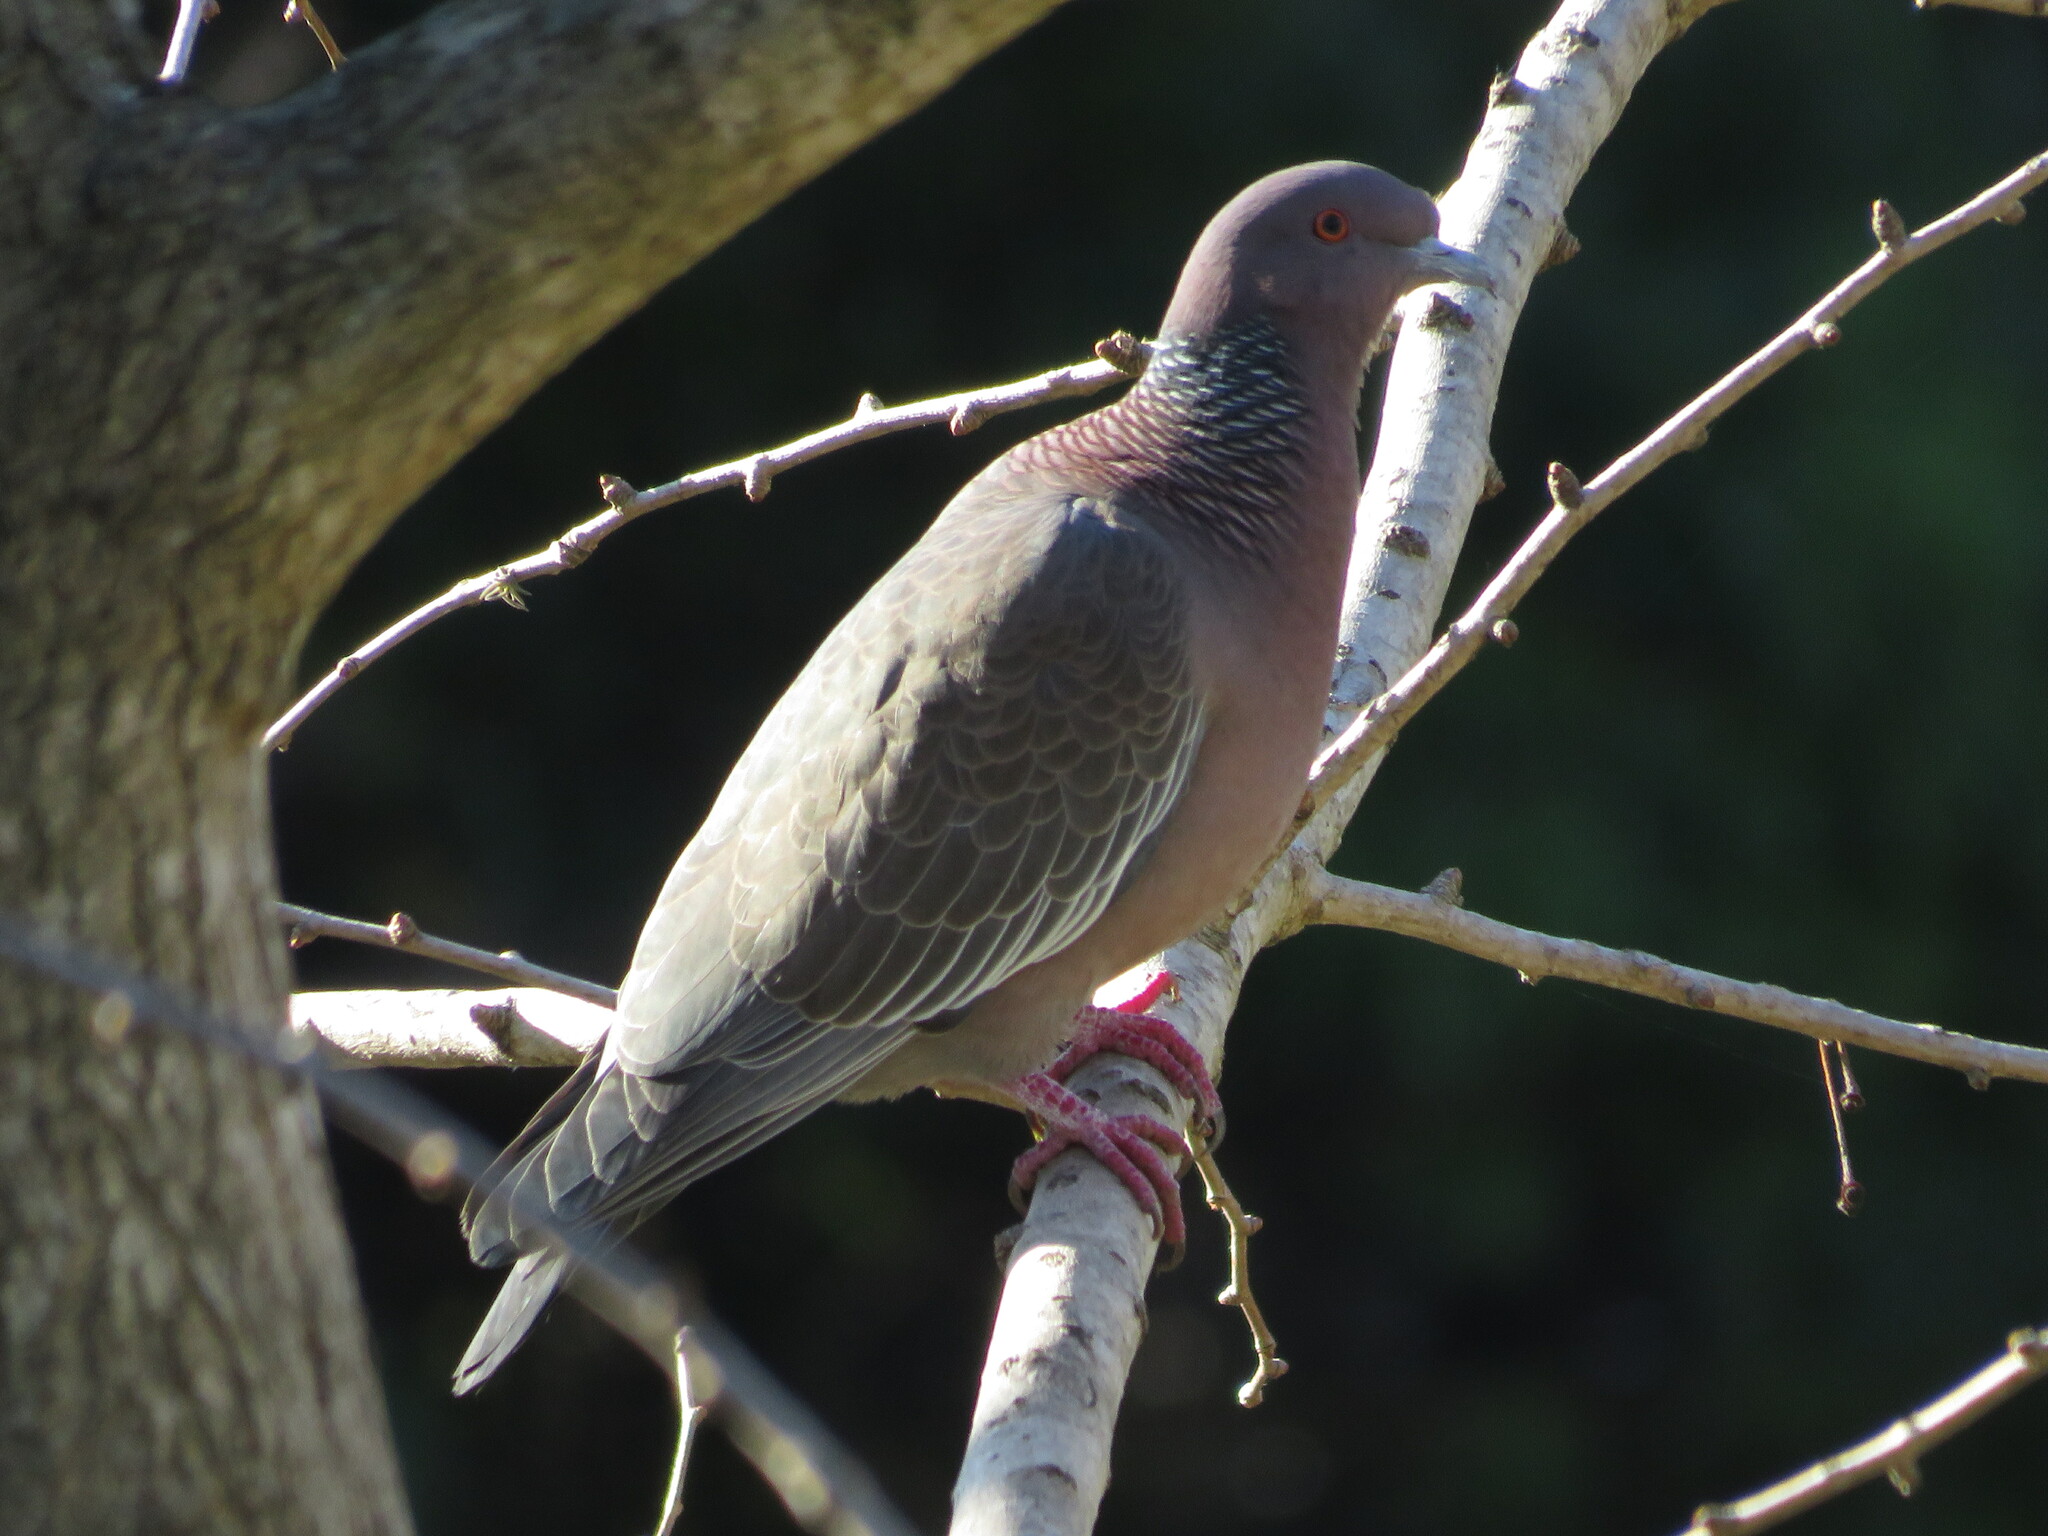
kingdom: Animalia
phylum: Chordata
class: Aves
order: Columbiformes
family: Columbidae
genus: Patagioenas
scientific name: Patagioenas picazuro
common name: Picazuro pigeon
